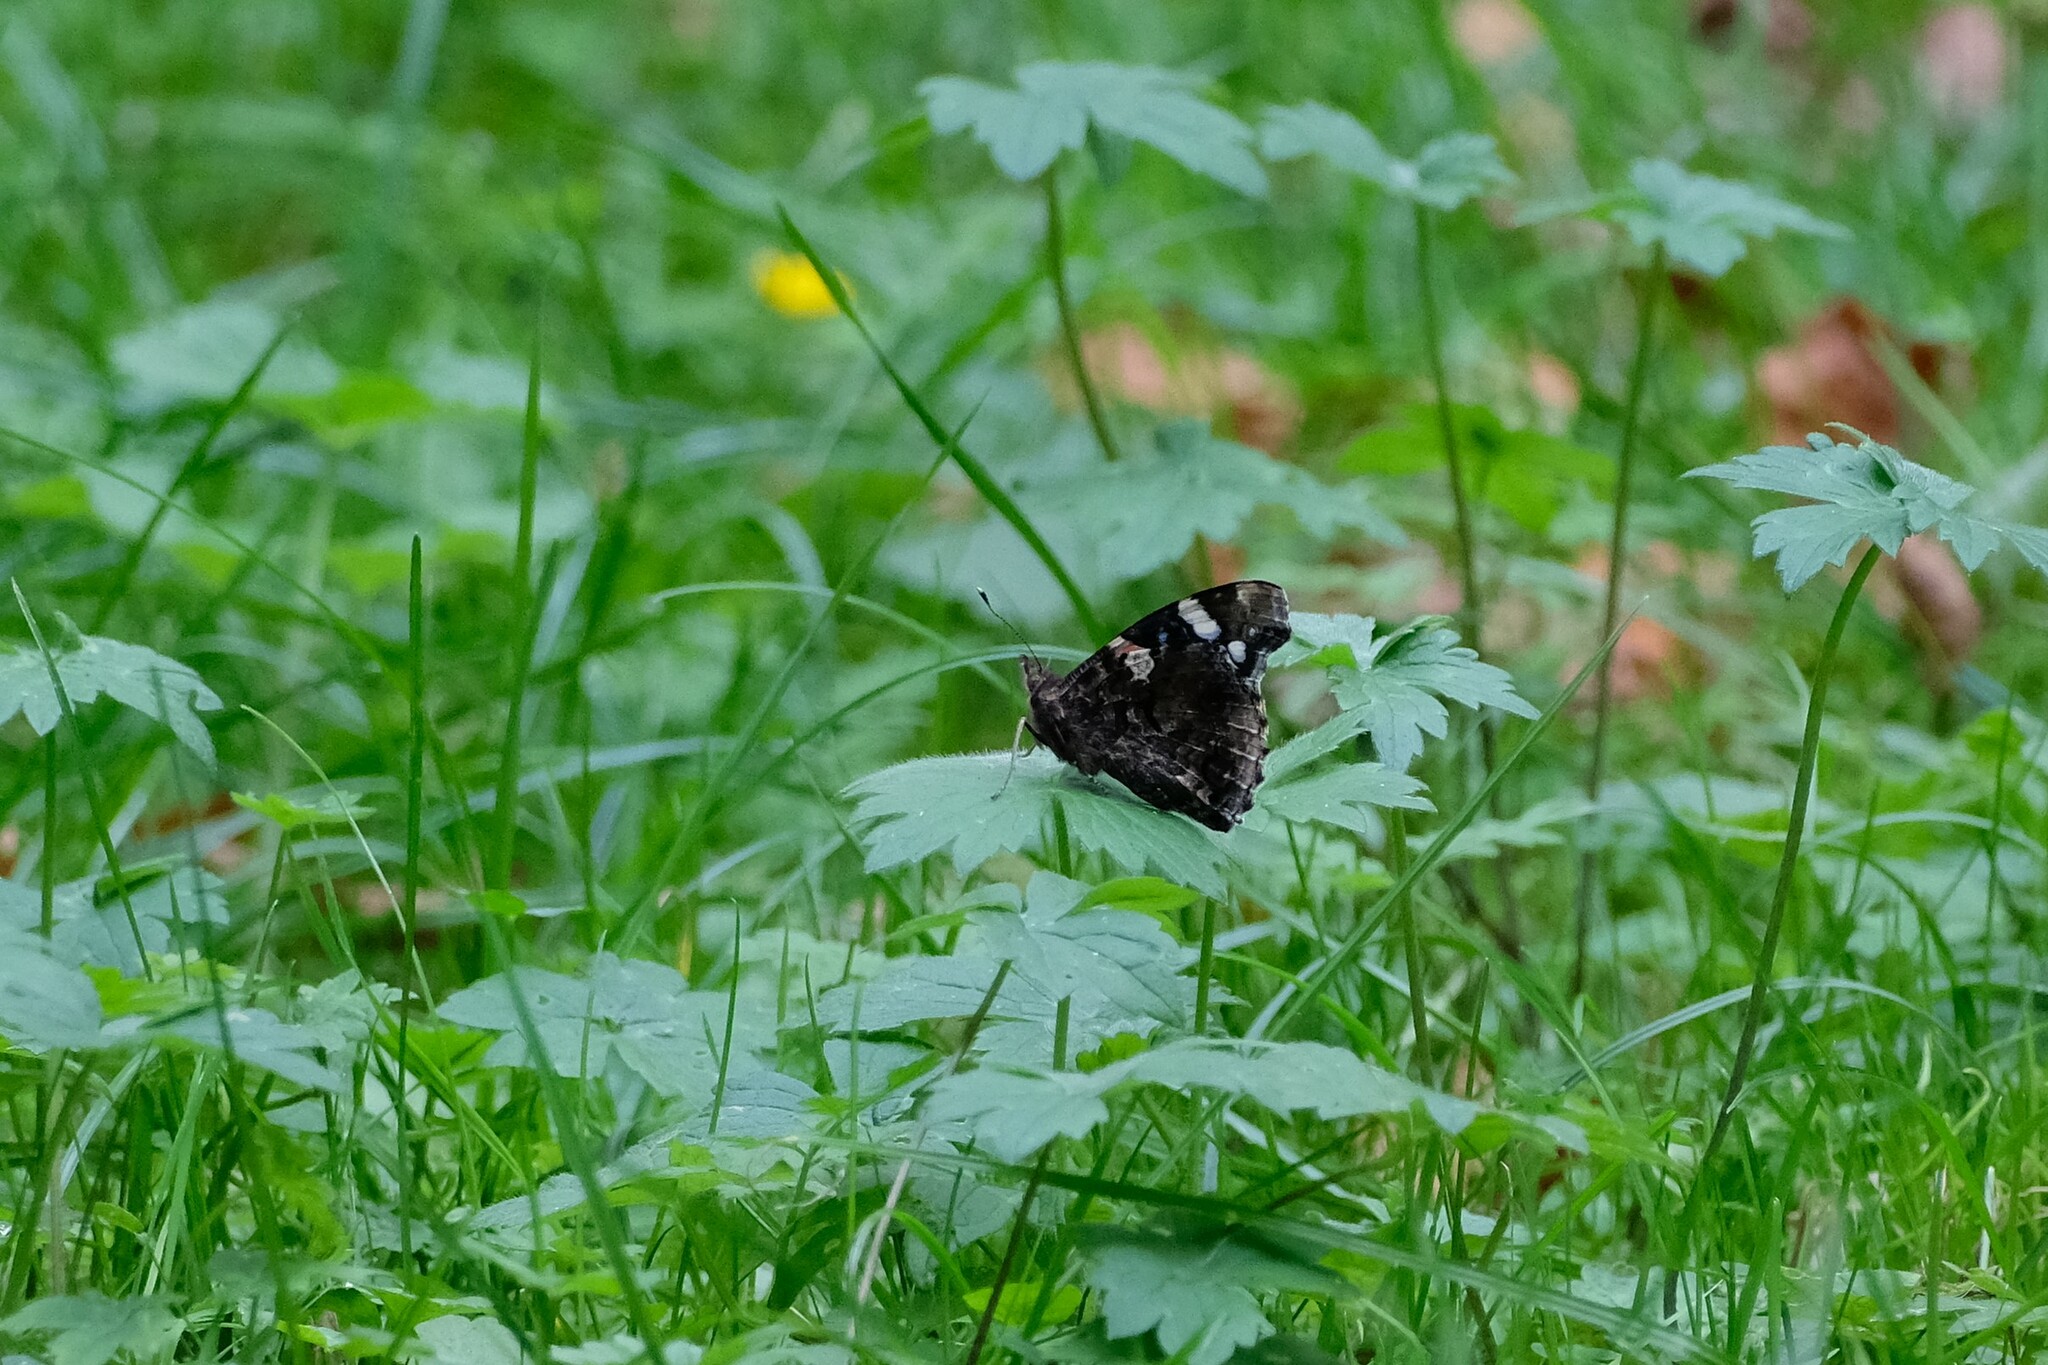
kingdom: Animalia
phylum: Arthropoda
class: Insecta
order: Lepidoptera
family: Nymphalidae
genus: Vanessa
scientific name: Vanessa atalanta
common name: Red admiral
